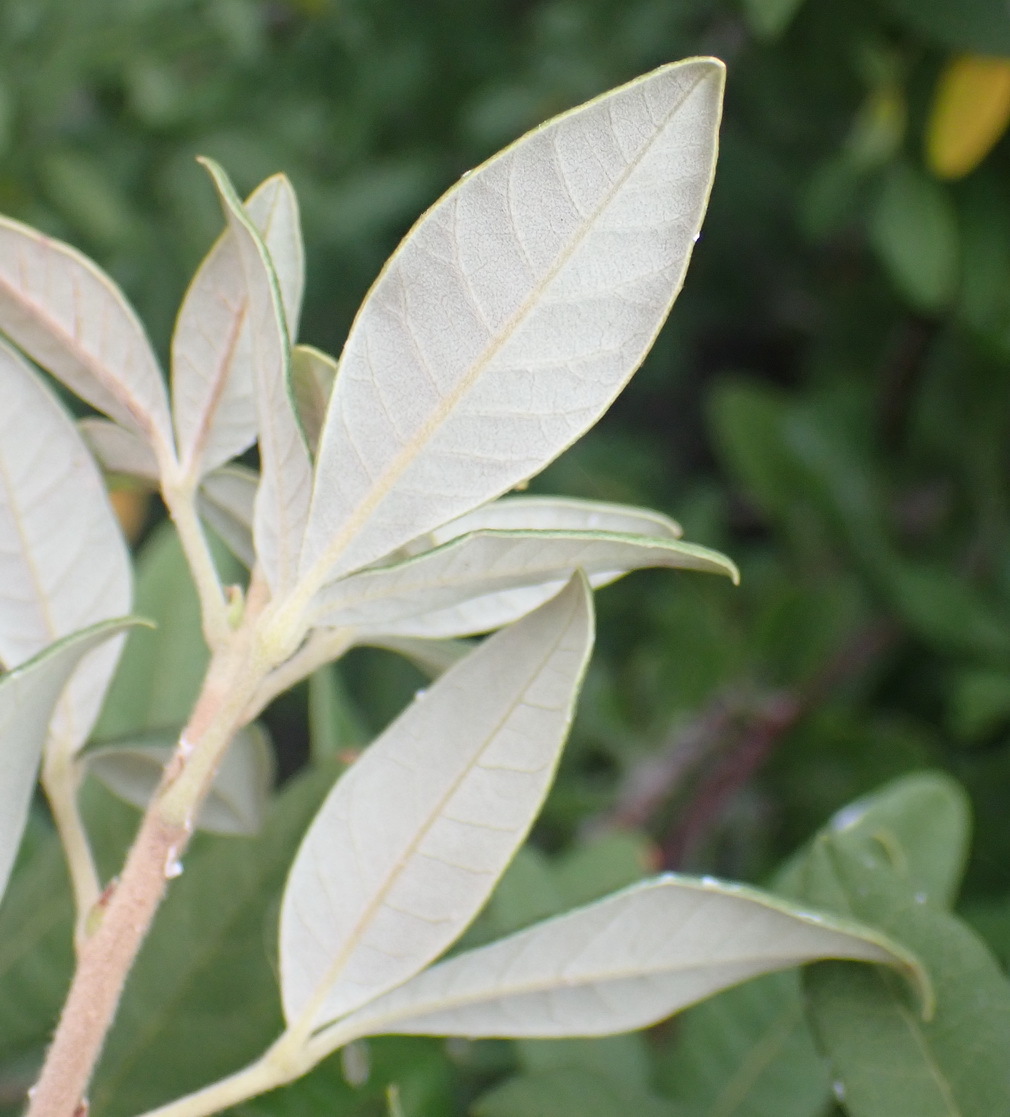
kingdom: Plantae
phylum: Tracheophyta
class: Magnoliopsida
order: Sapindales
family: Anacardiaceae
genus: Searsia
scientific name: Searsia tomentosa
